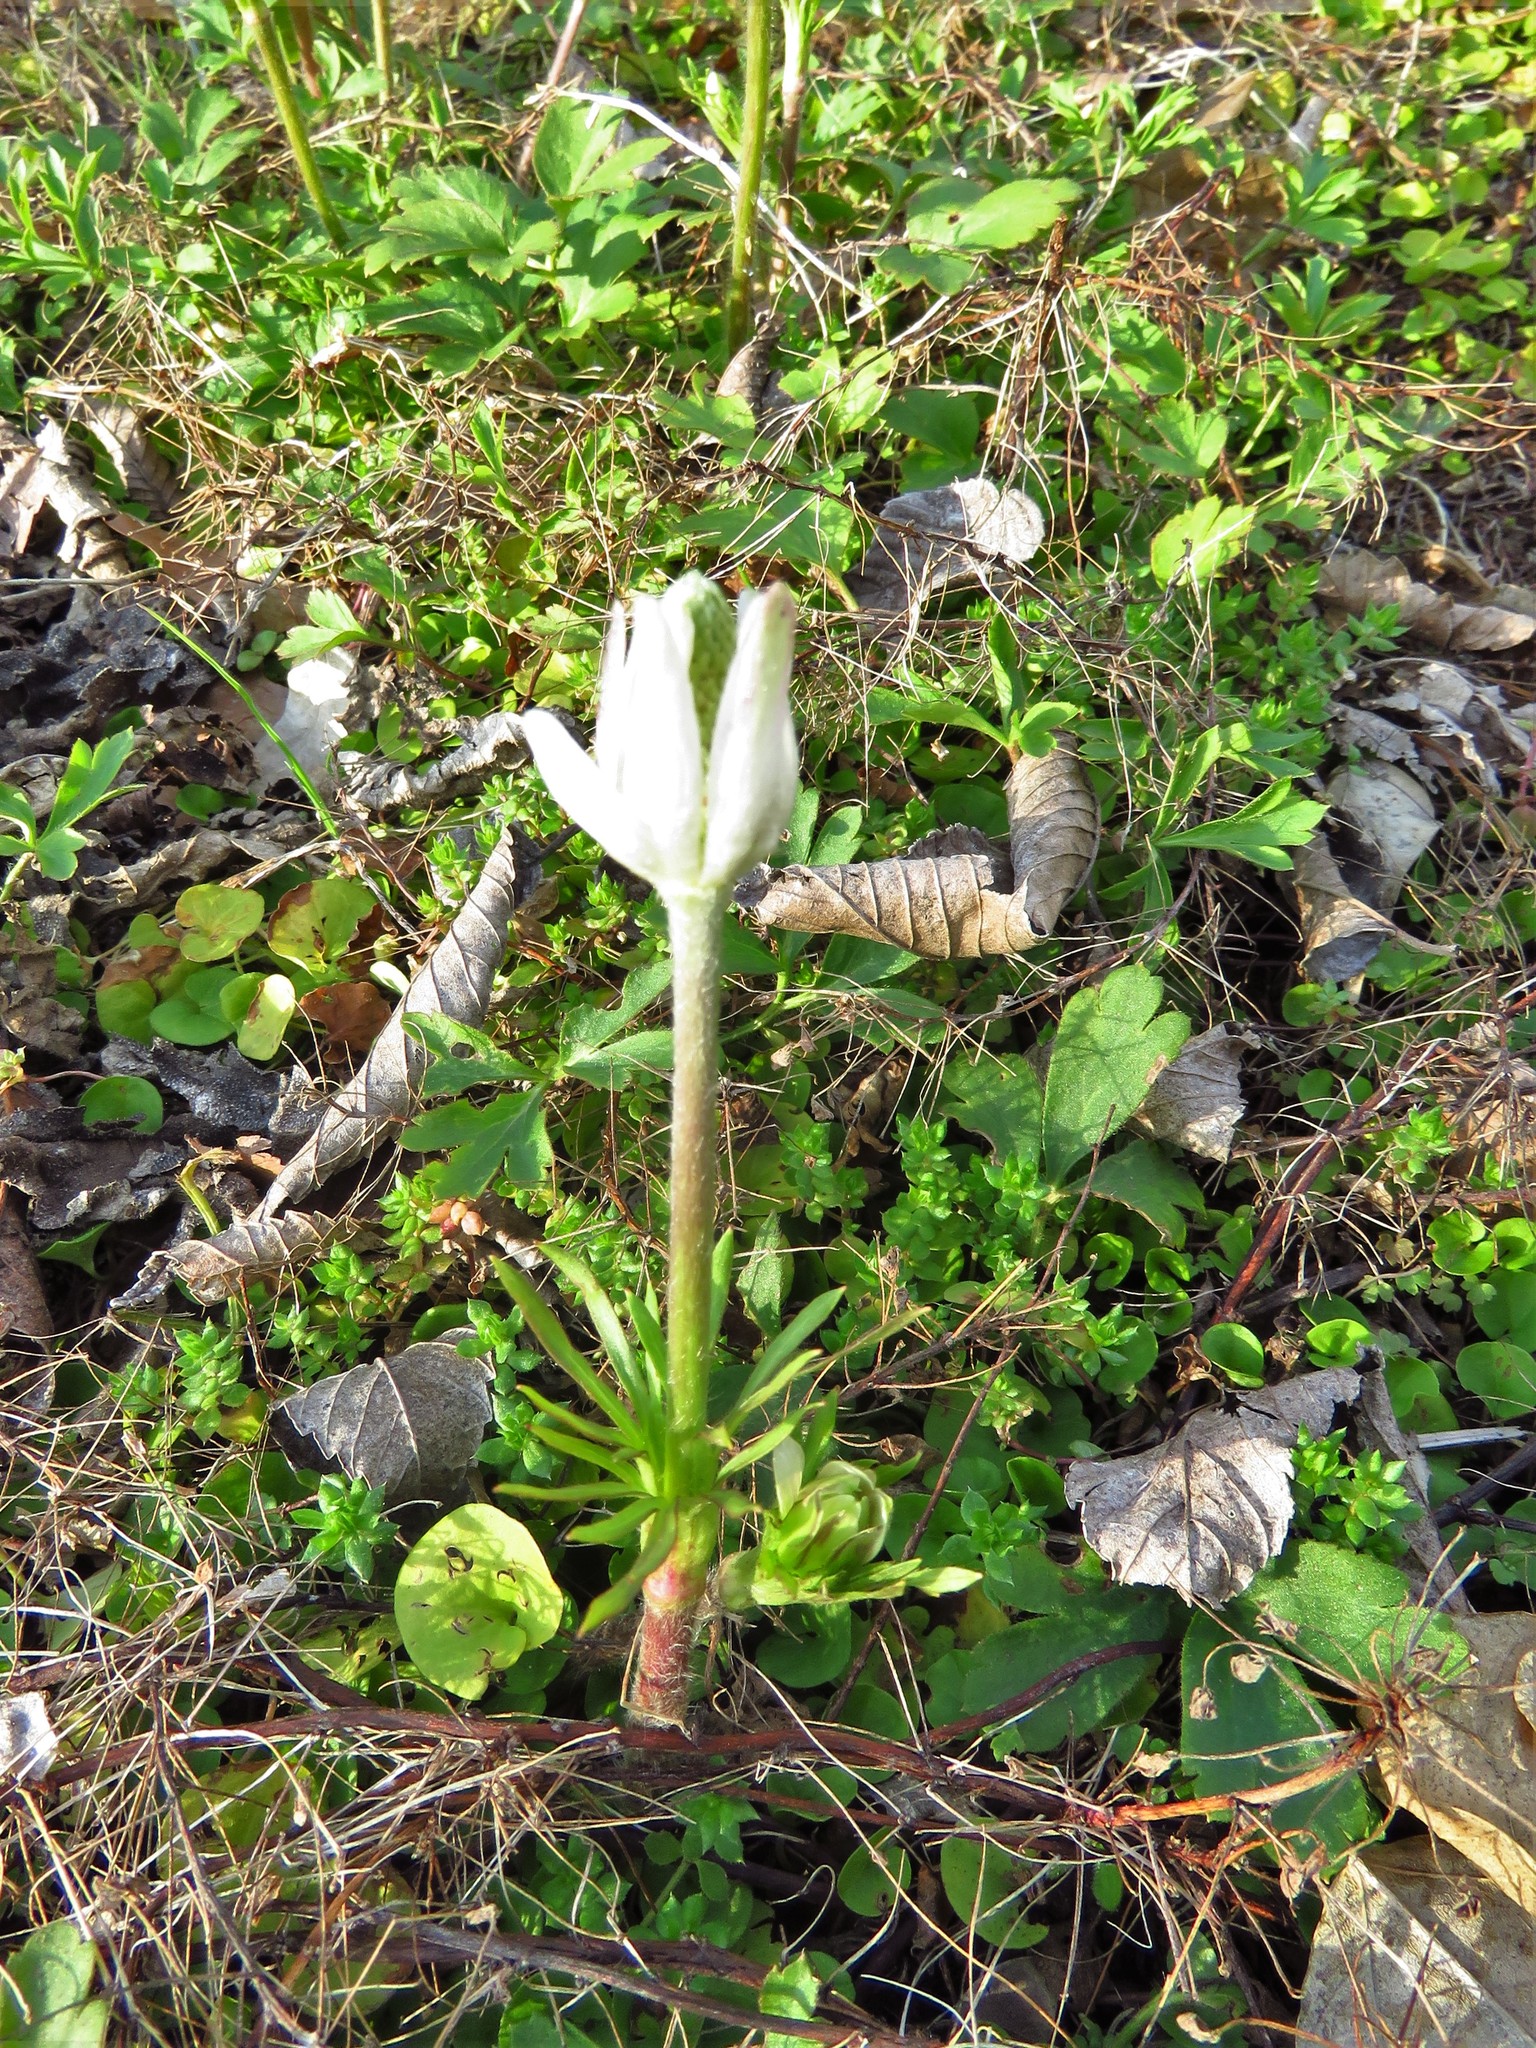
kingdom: Plantae
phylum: Tracheophyta
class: Magnoliopsida
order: Ranunculales
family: Ranunculaceae
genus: Anemone
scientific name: Anemone berlandieri
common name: Ten-petal anemone
